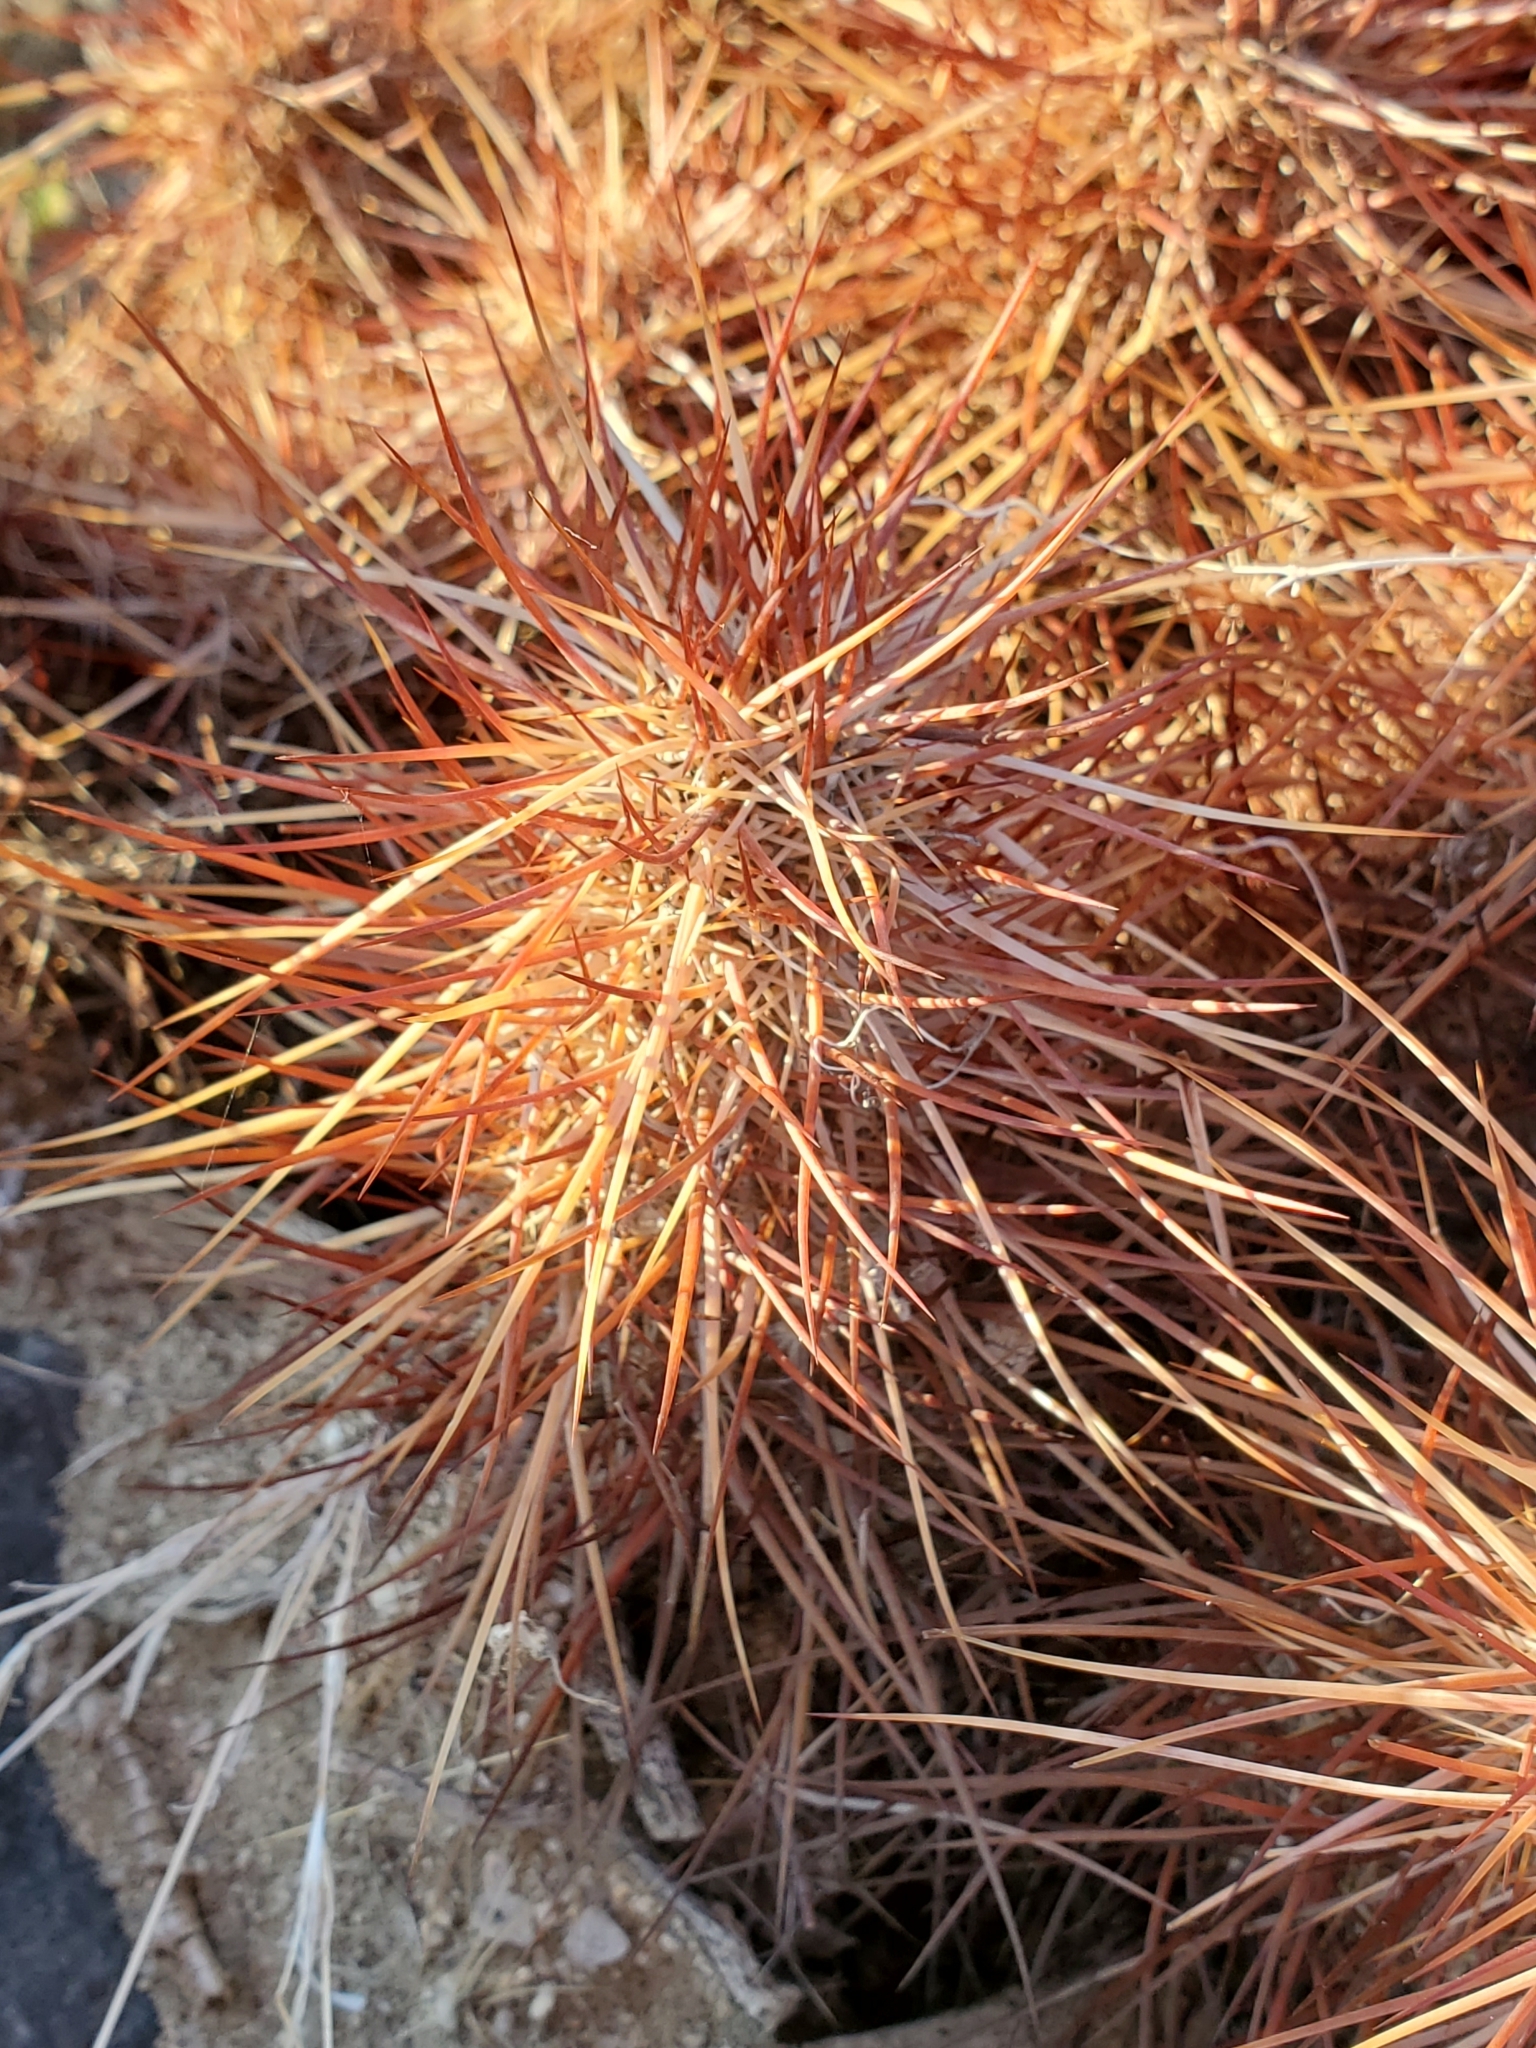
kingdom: Plantae
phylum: Tracheophyta
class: Magnoliopsida
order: Caryophyllales
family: Cactaceae
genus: Echinocereus
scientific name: Echinocereus engelmannii
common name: Engelmann's hedgehog cactus
